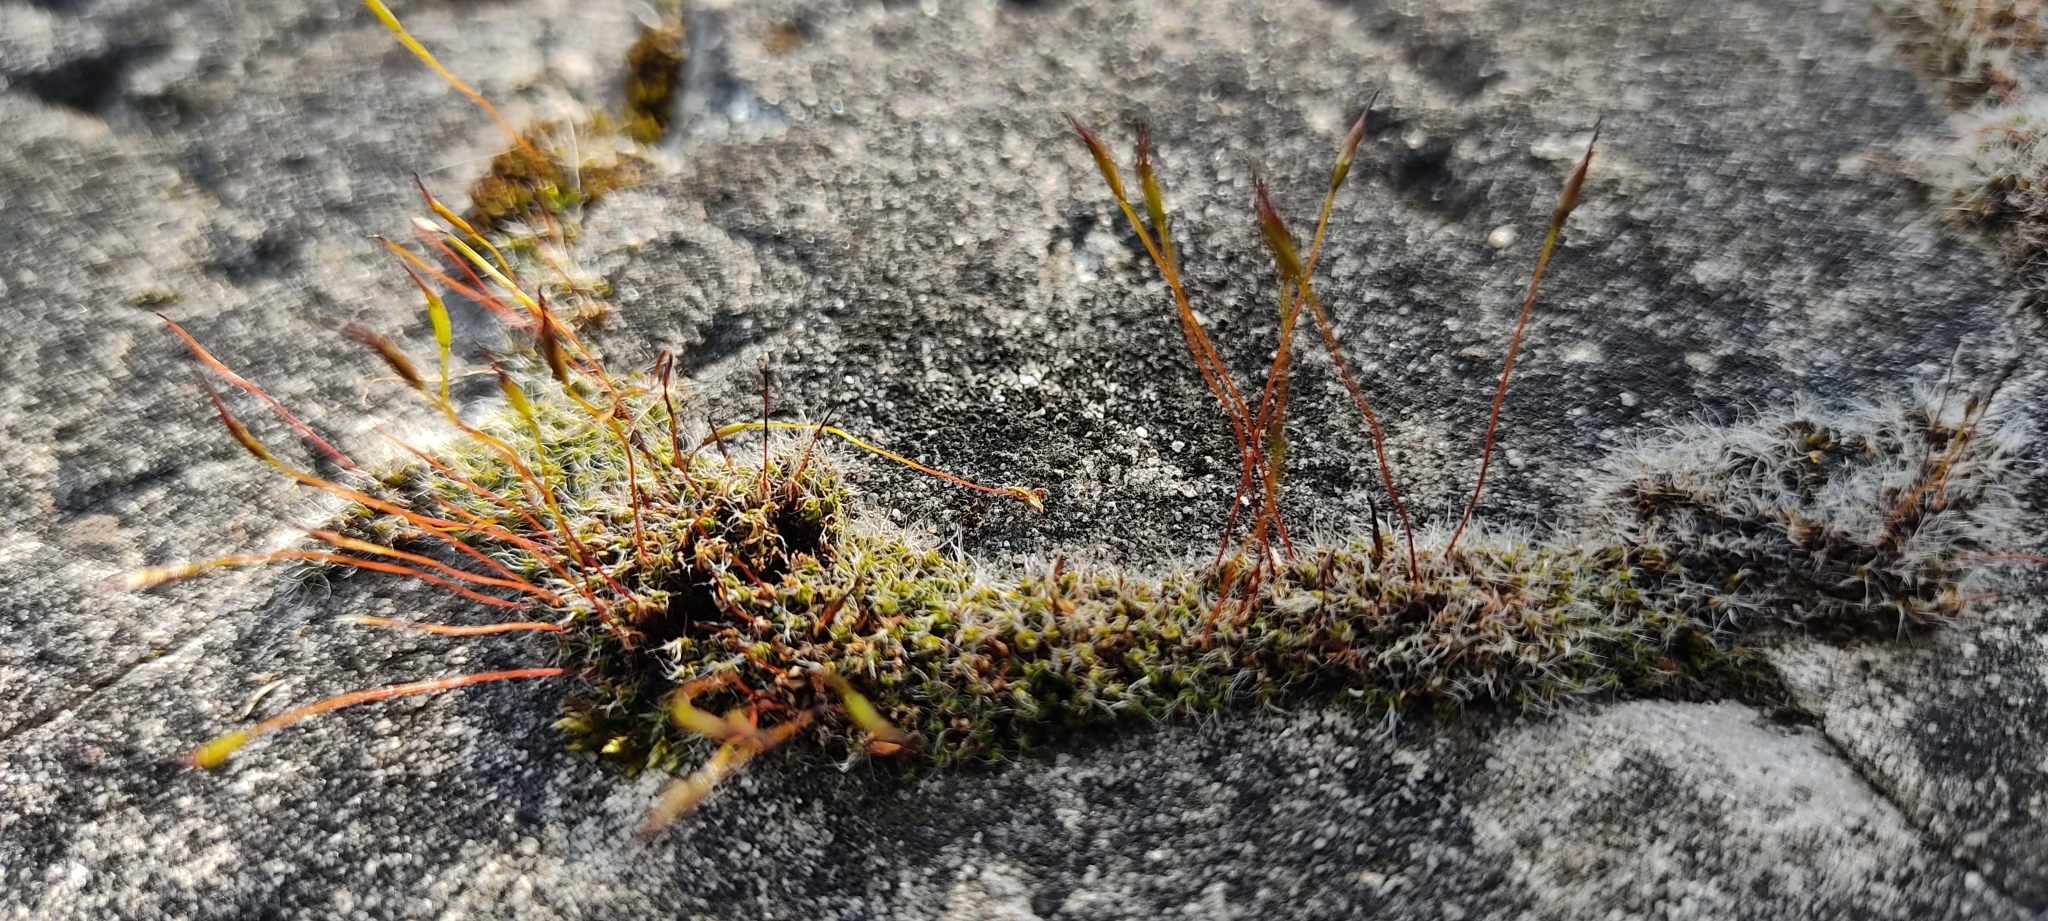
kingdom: Plantae
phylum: Bryophyta
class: Bryopsida
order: Pottiales
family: Pottiaceae
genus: Tortula
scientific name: Tortula muralis
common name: Wall screw-moss
